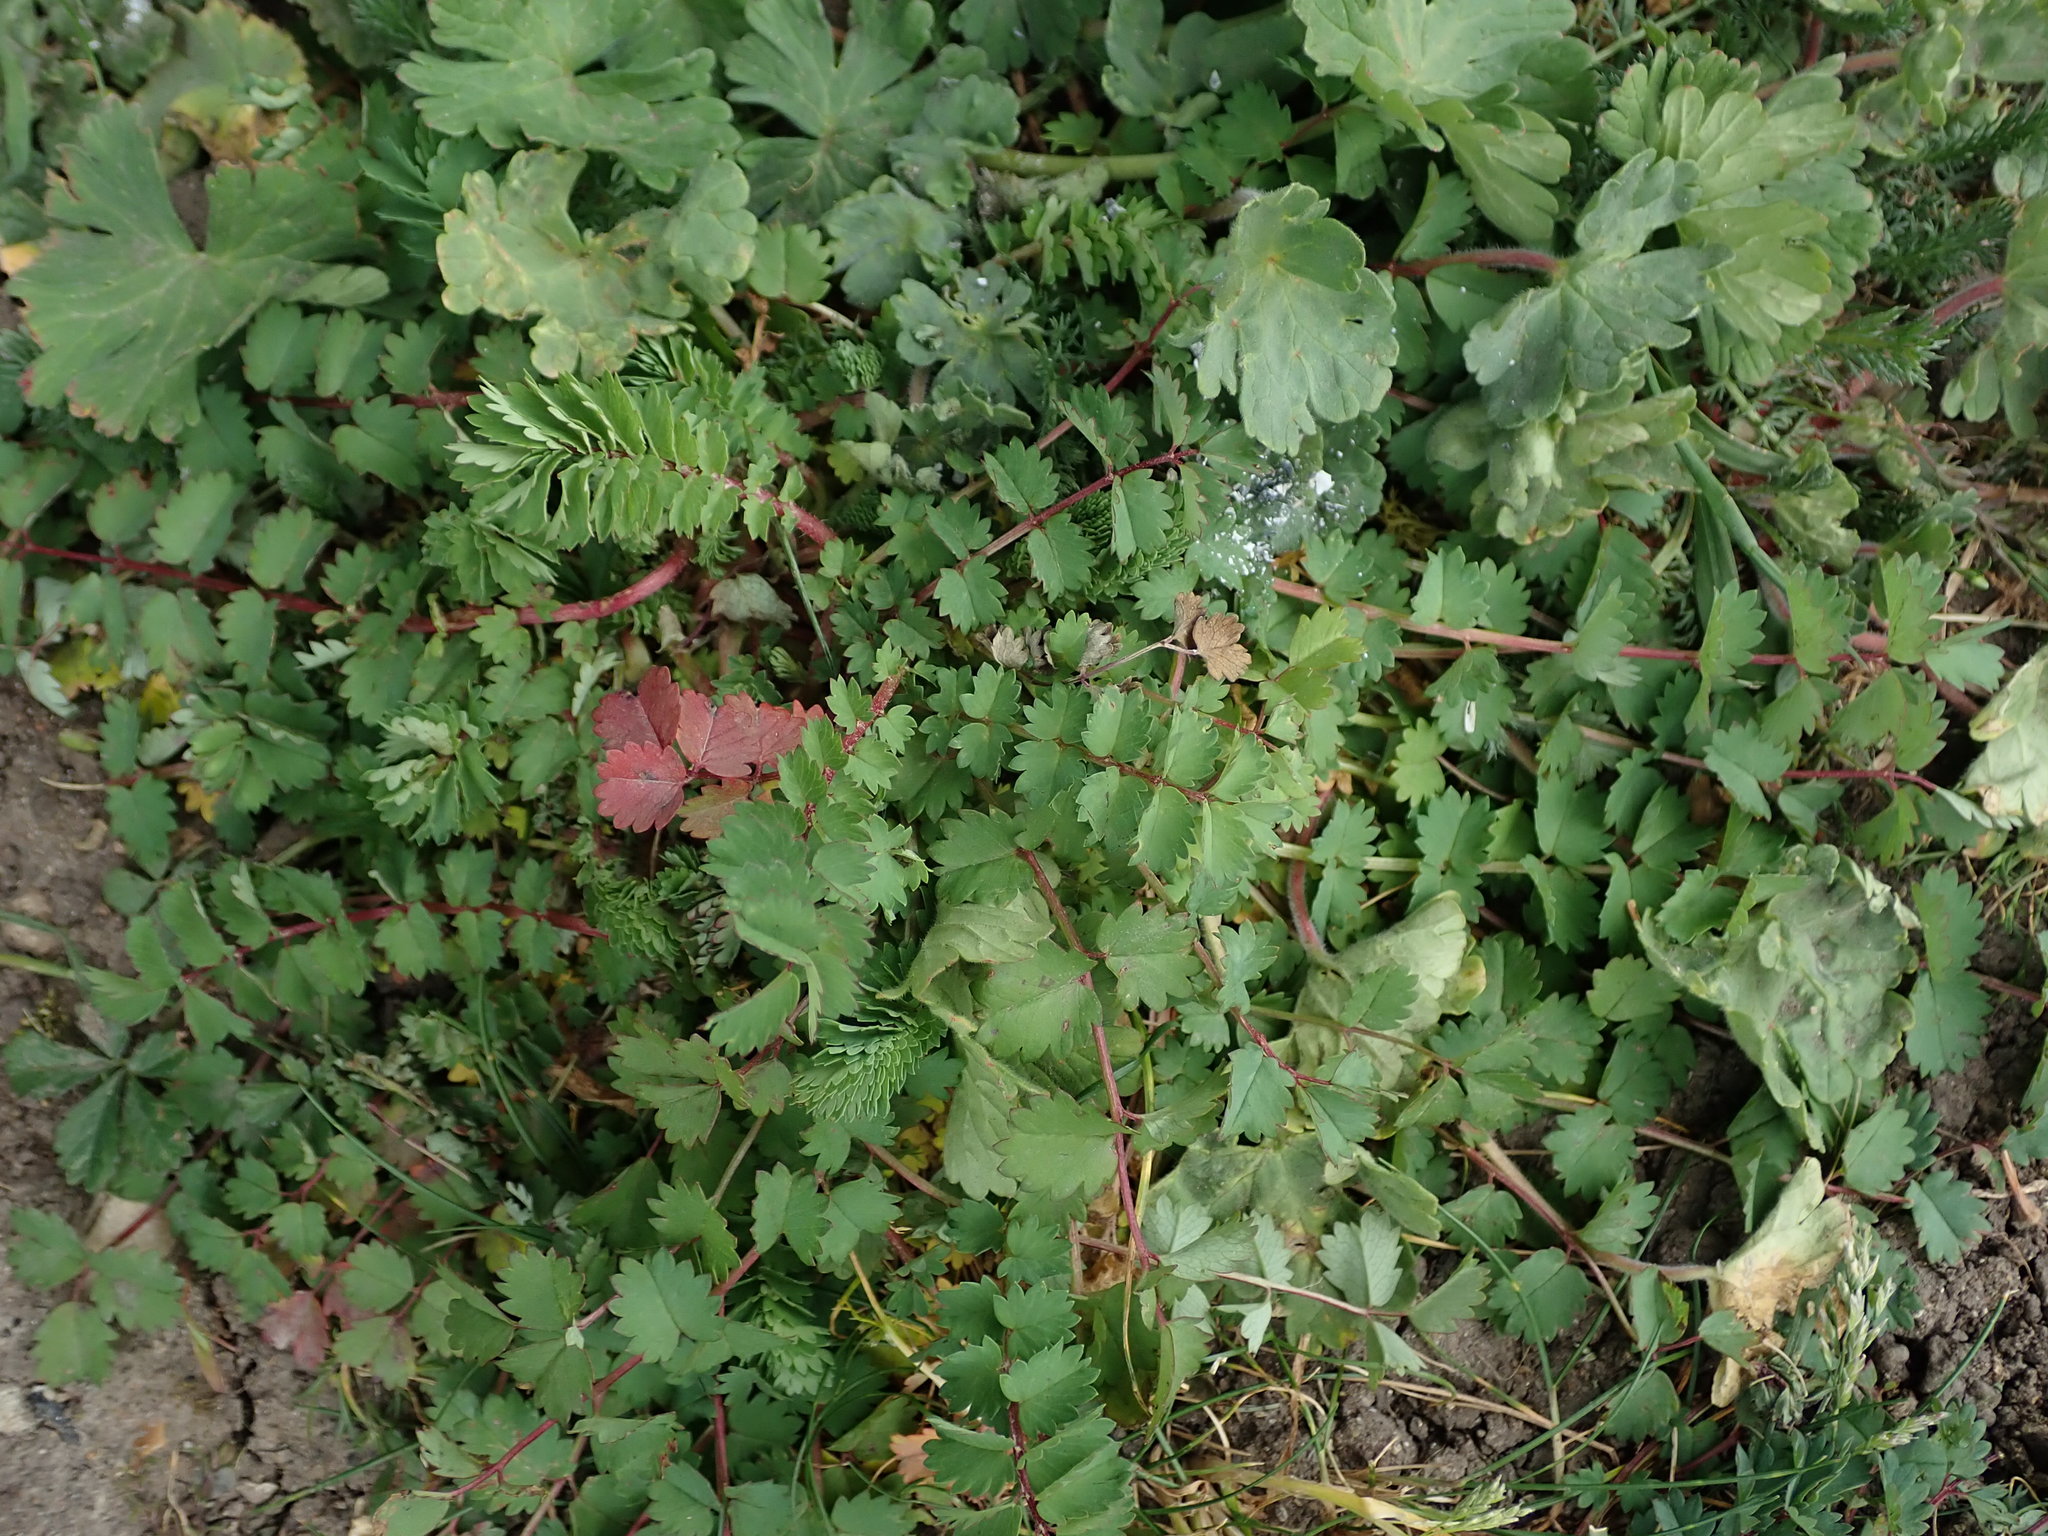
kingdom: Plantae
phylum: Tracheophyta
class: Magnoliopsida
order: Rosales
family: Rosaceae
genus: Poterium
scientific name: Poterium sanguisorba
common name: Salad burnet
